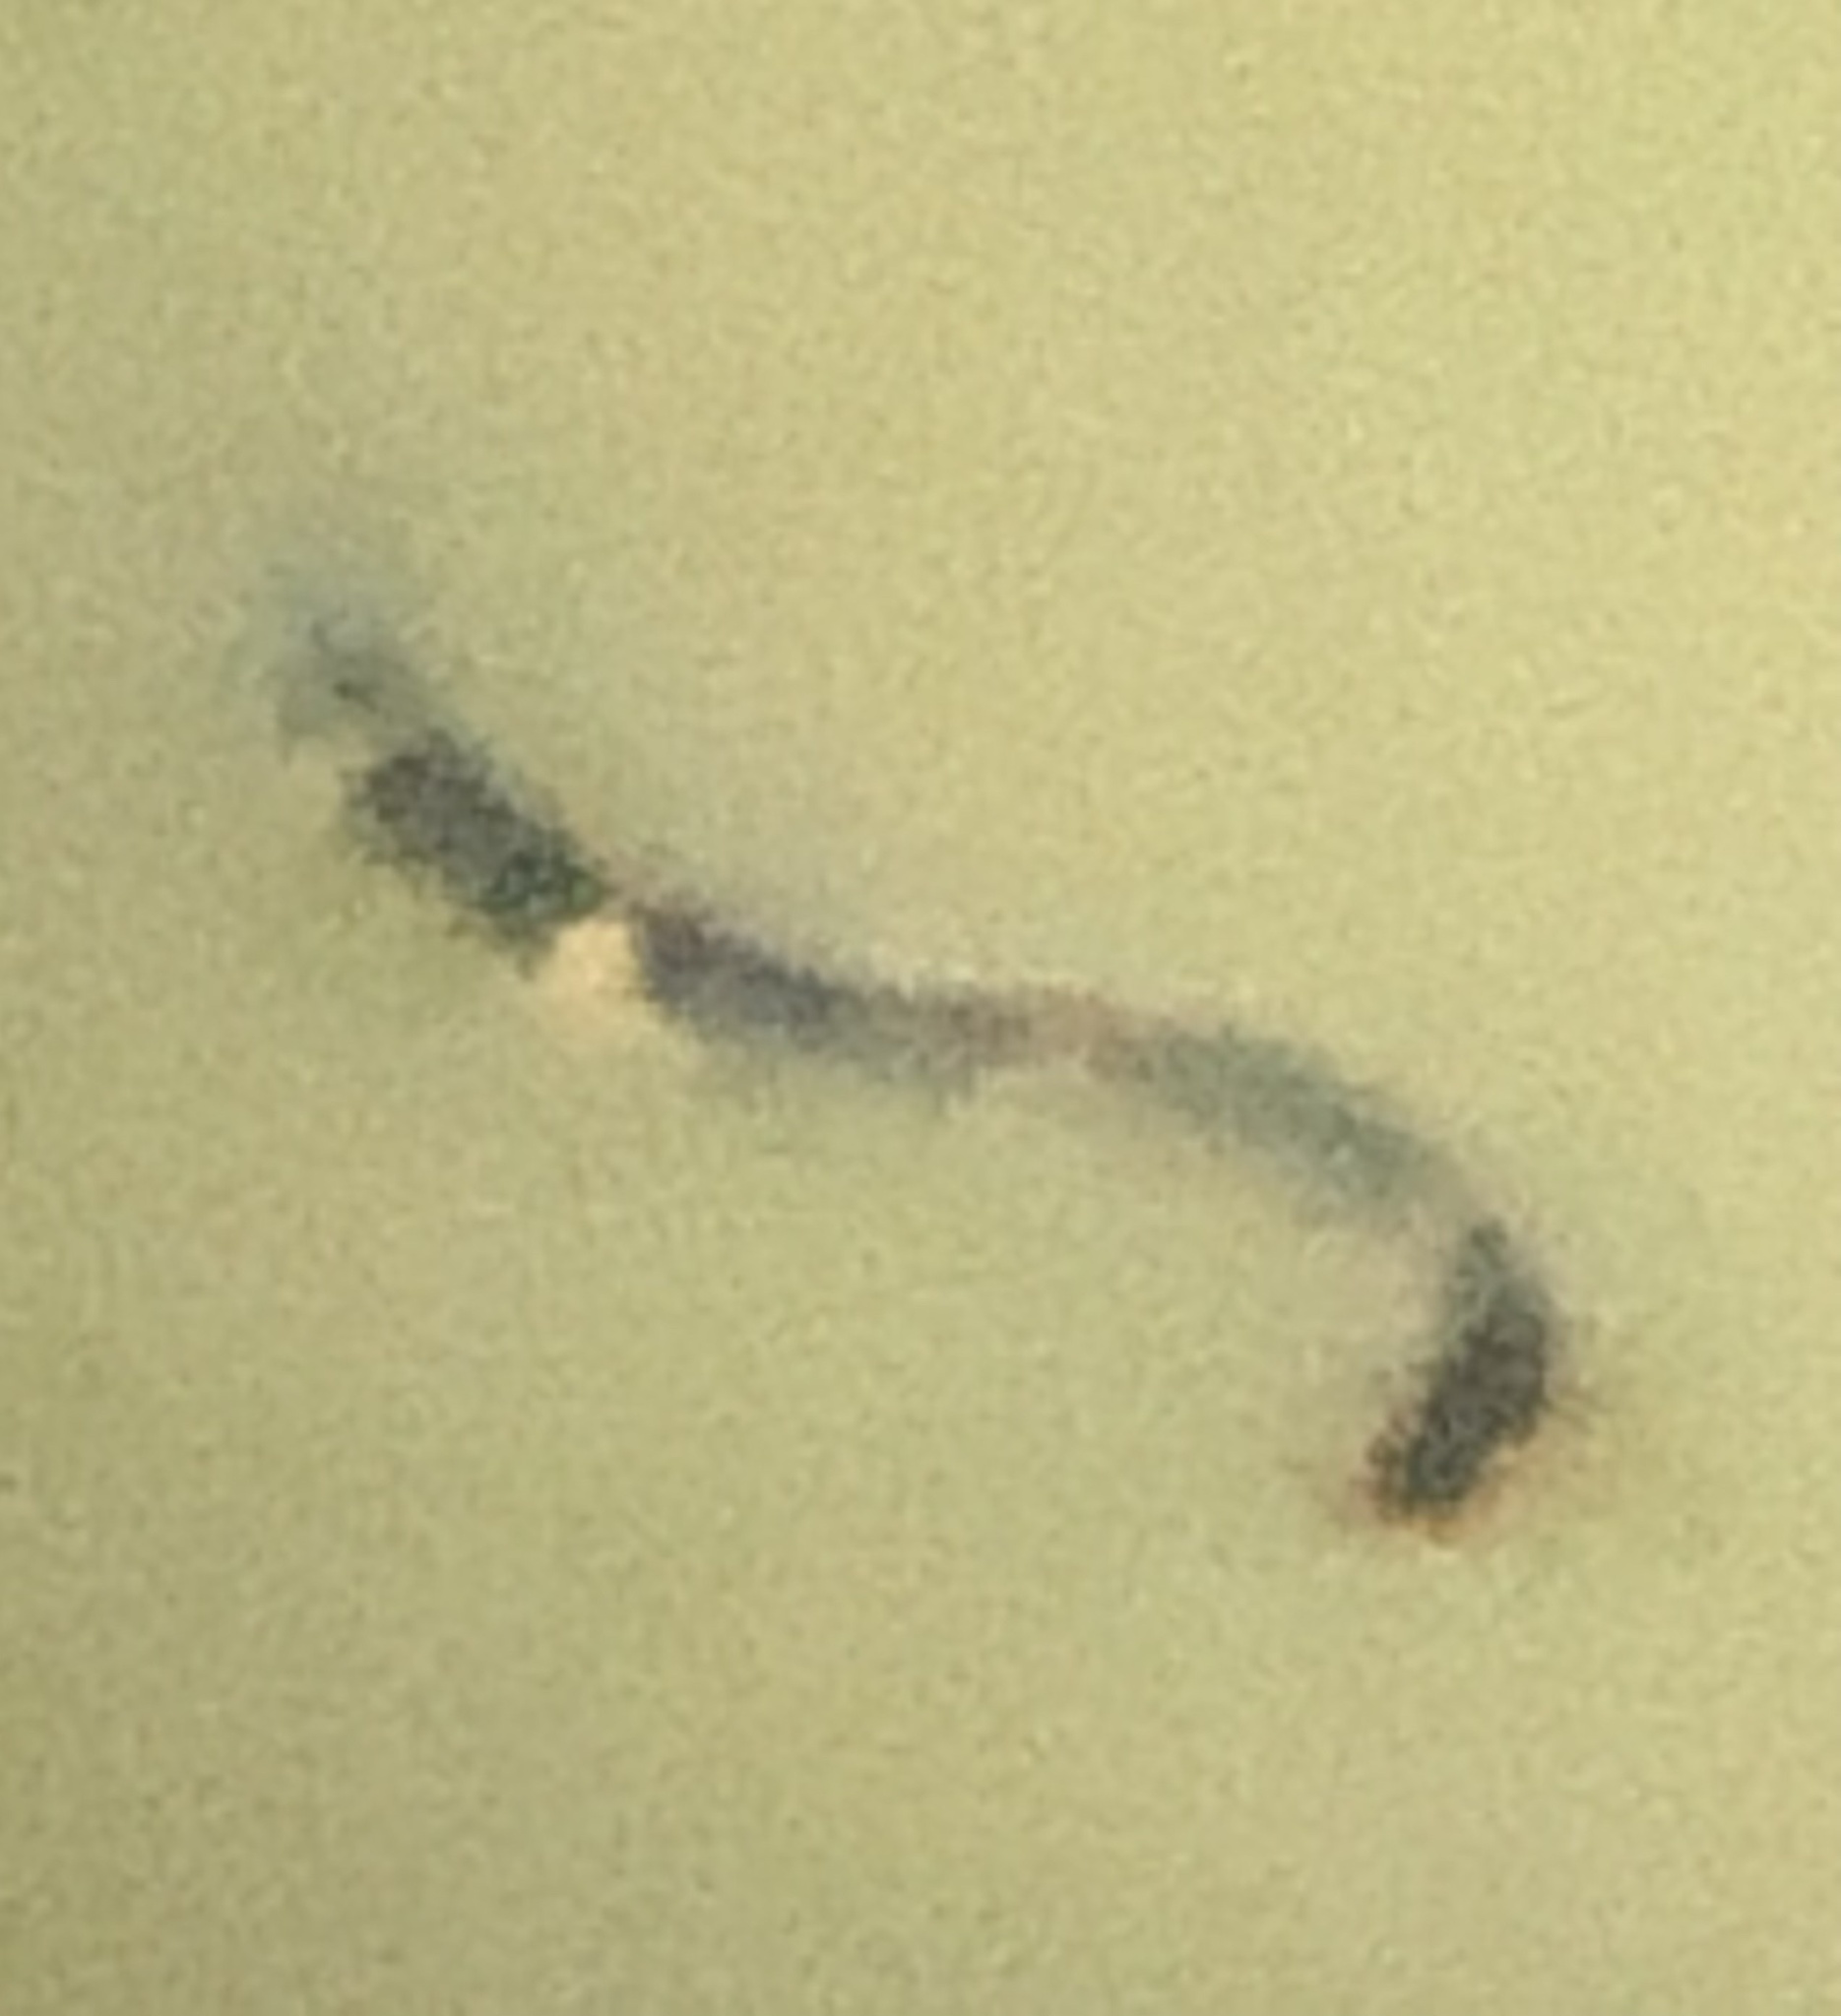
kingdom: Animalia
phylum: Chordata
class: Squamata
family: Colubridae
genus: Nerodia
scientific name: Nerodia fasciata
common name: Southern water snake
